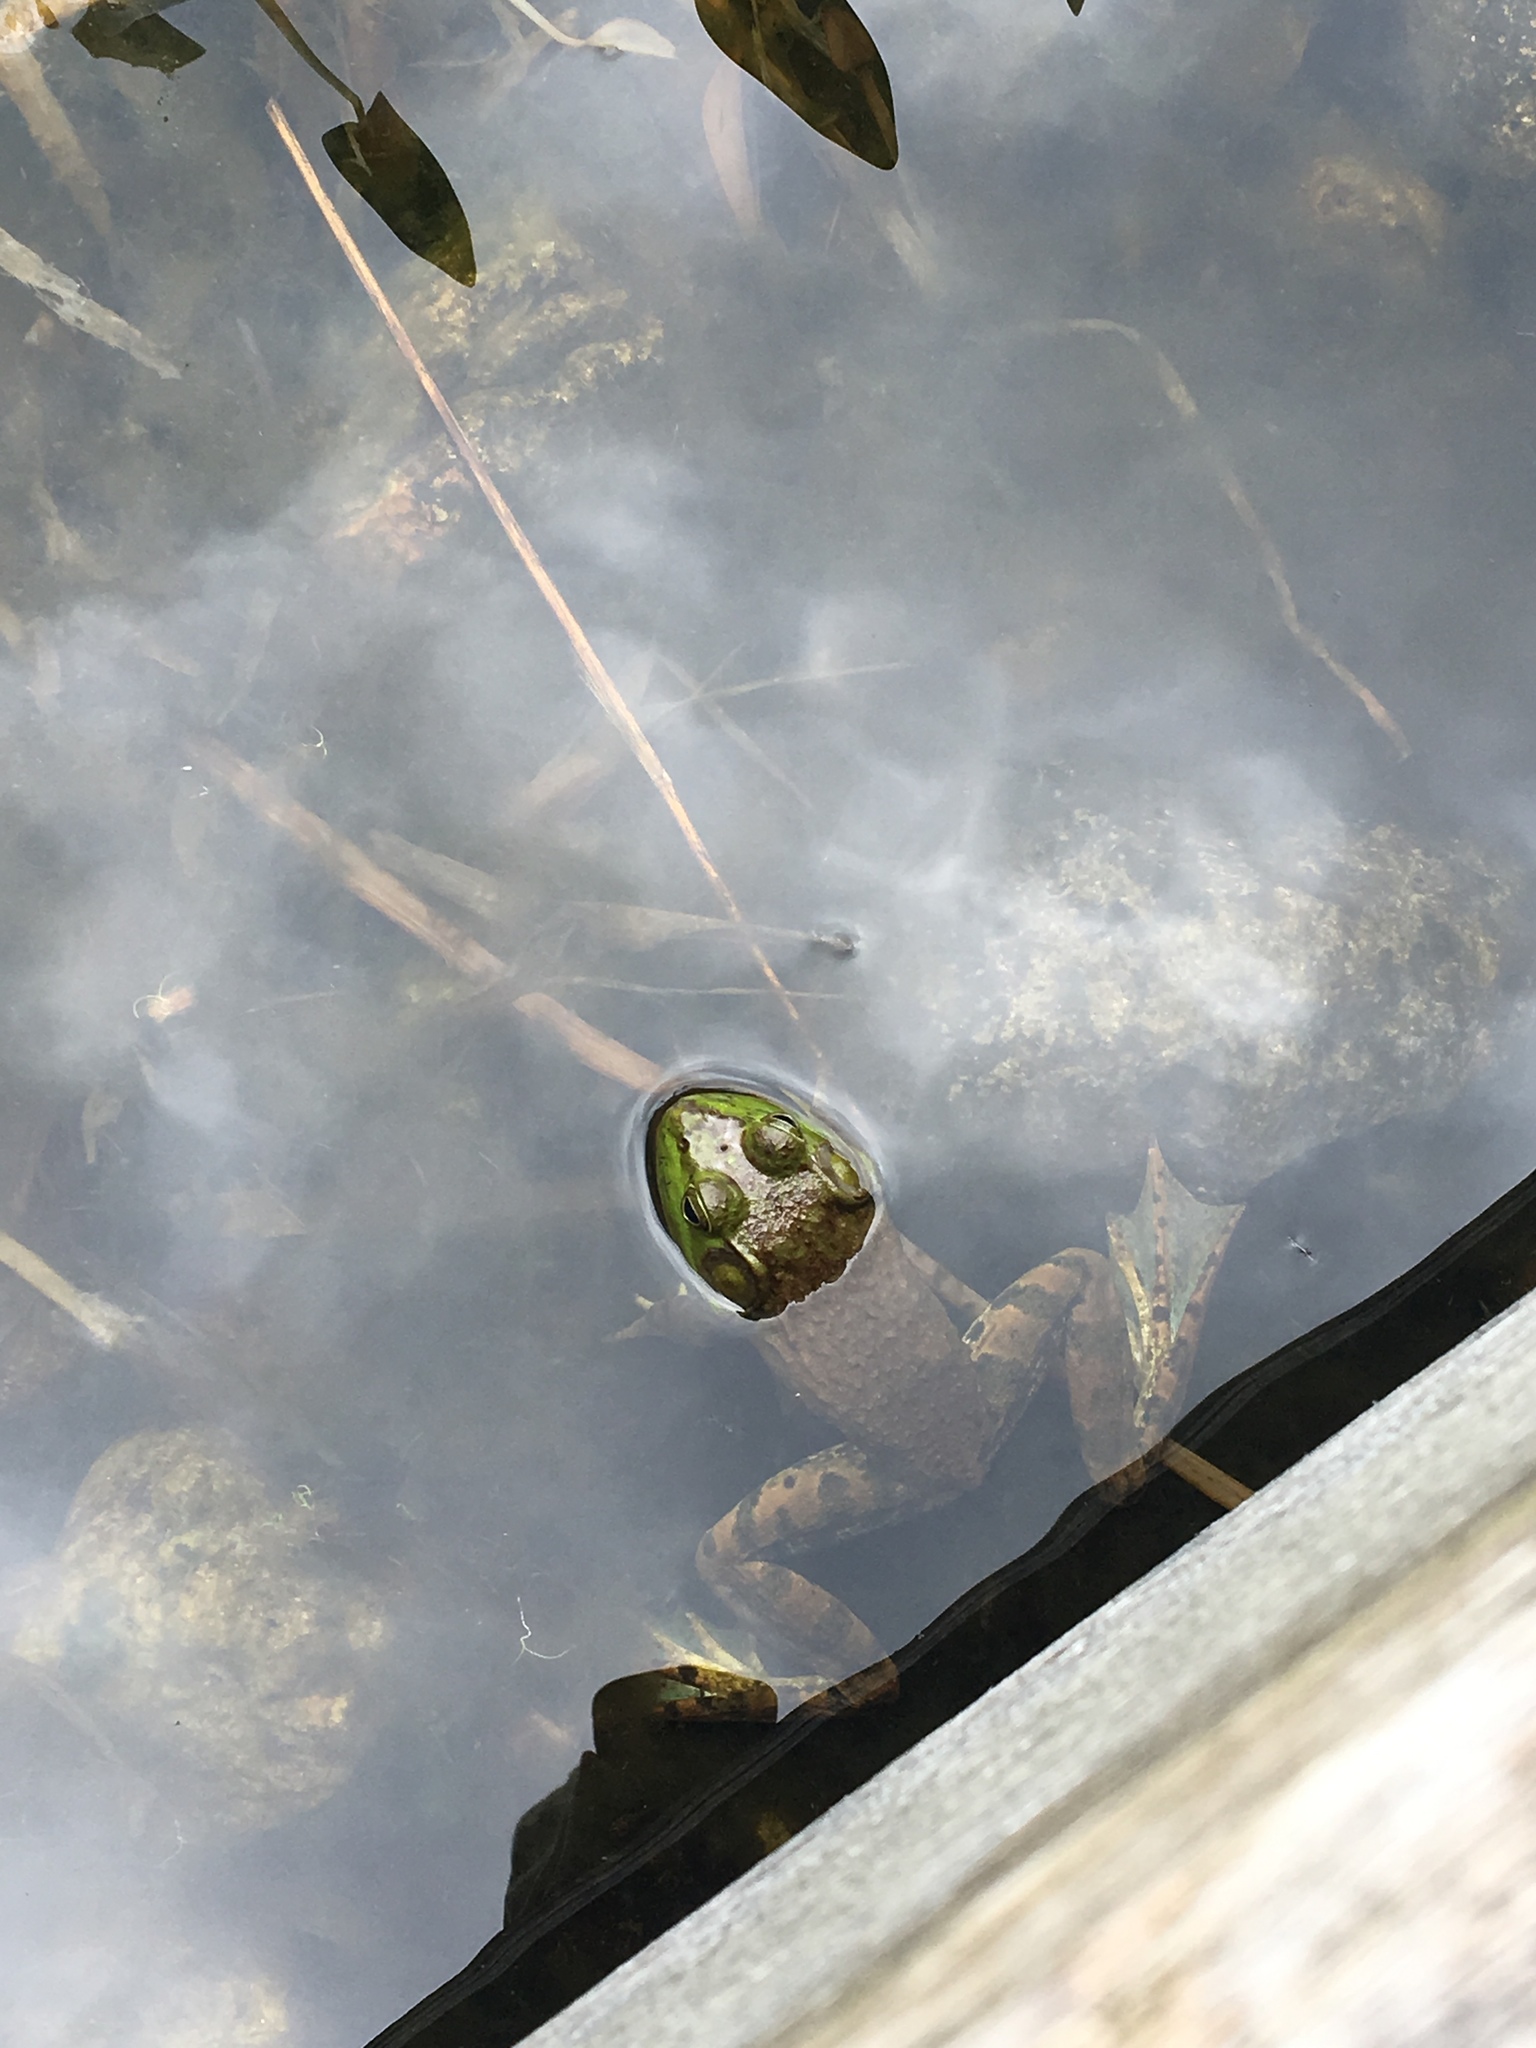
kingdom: Animalia
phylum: Chordata
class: Amphibia
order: Anura
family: Ranidae
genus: Lithobates
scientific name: Lithobates catesbeianus
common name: American bullfrog
